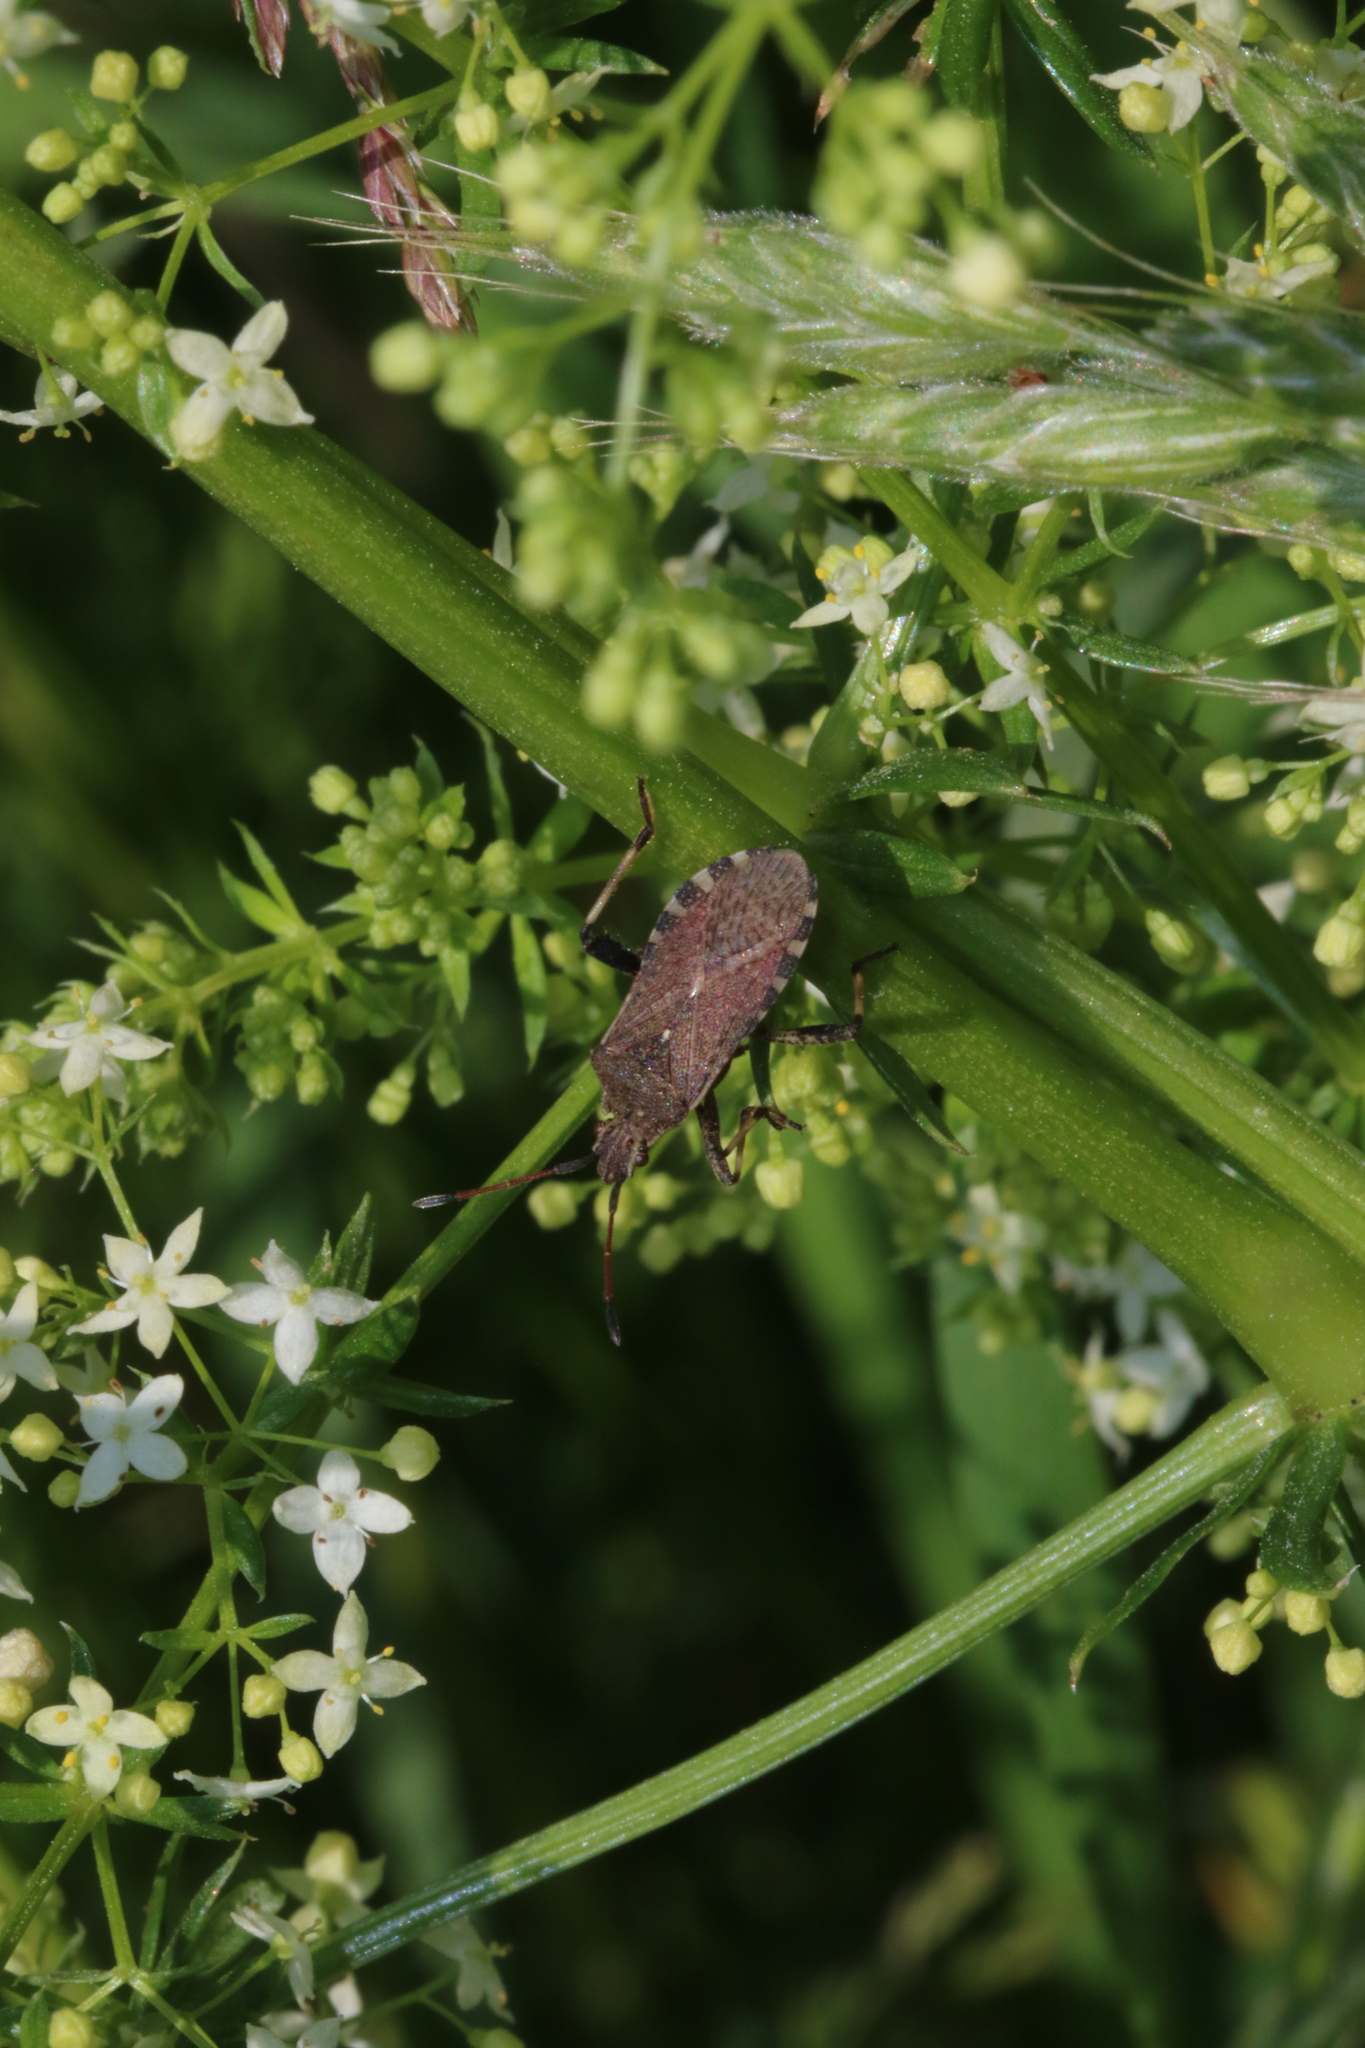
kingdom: Animalia
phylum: Arthropoda
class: Insecta
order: Hemiptera
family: Coreidae
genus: Ceraleptus
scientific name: Ceraleptus gracilicornis
